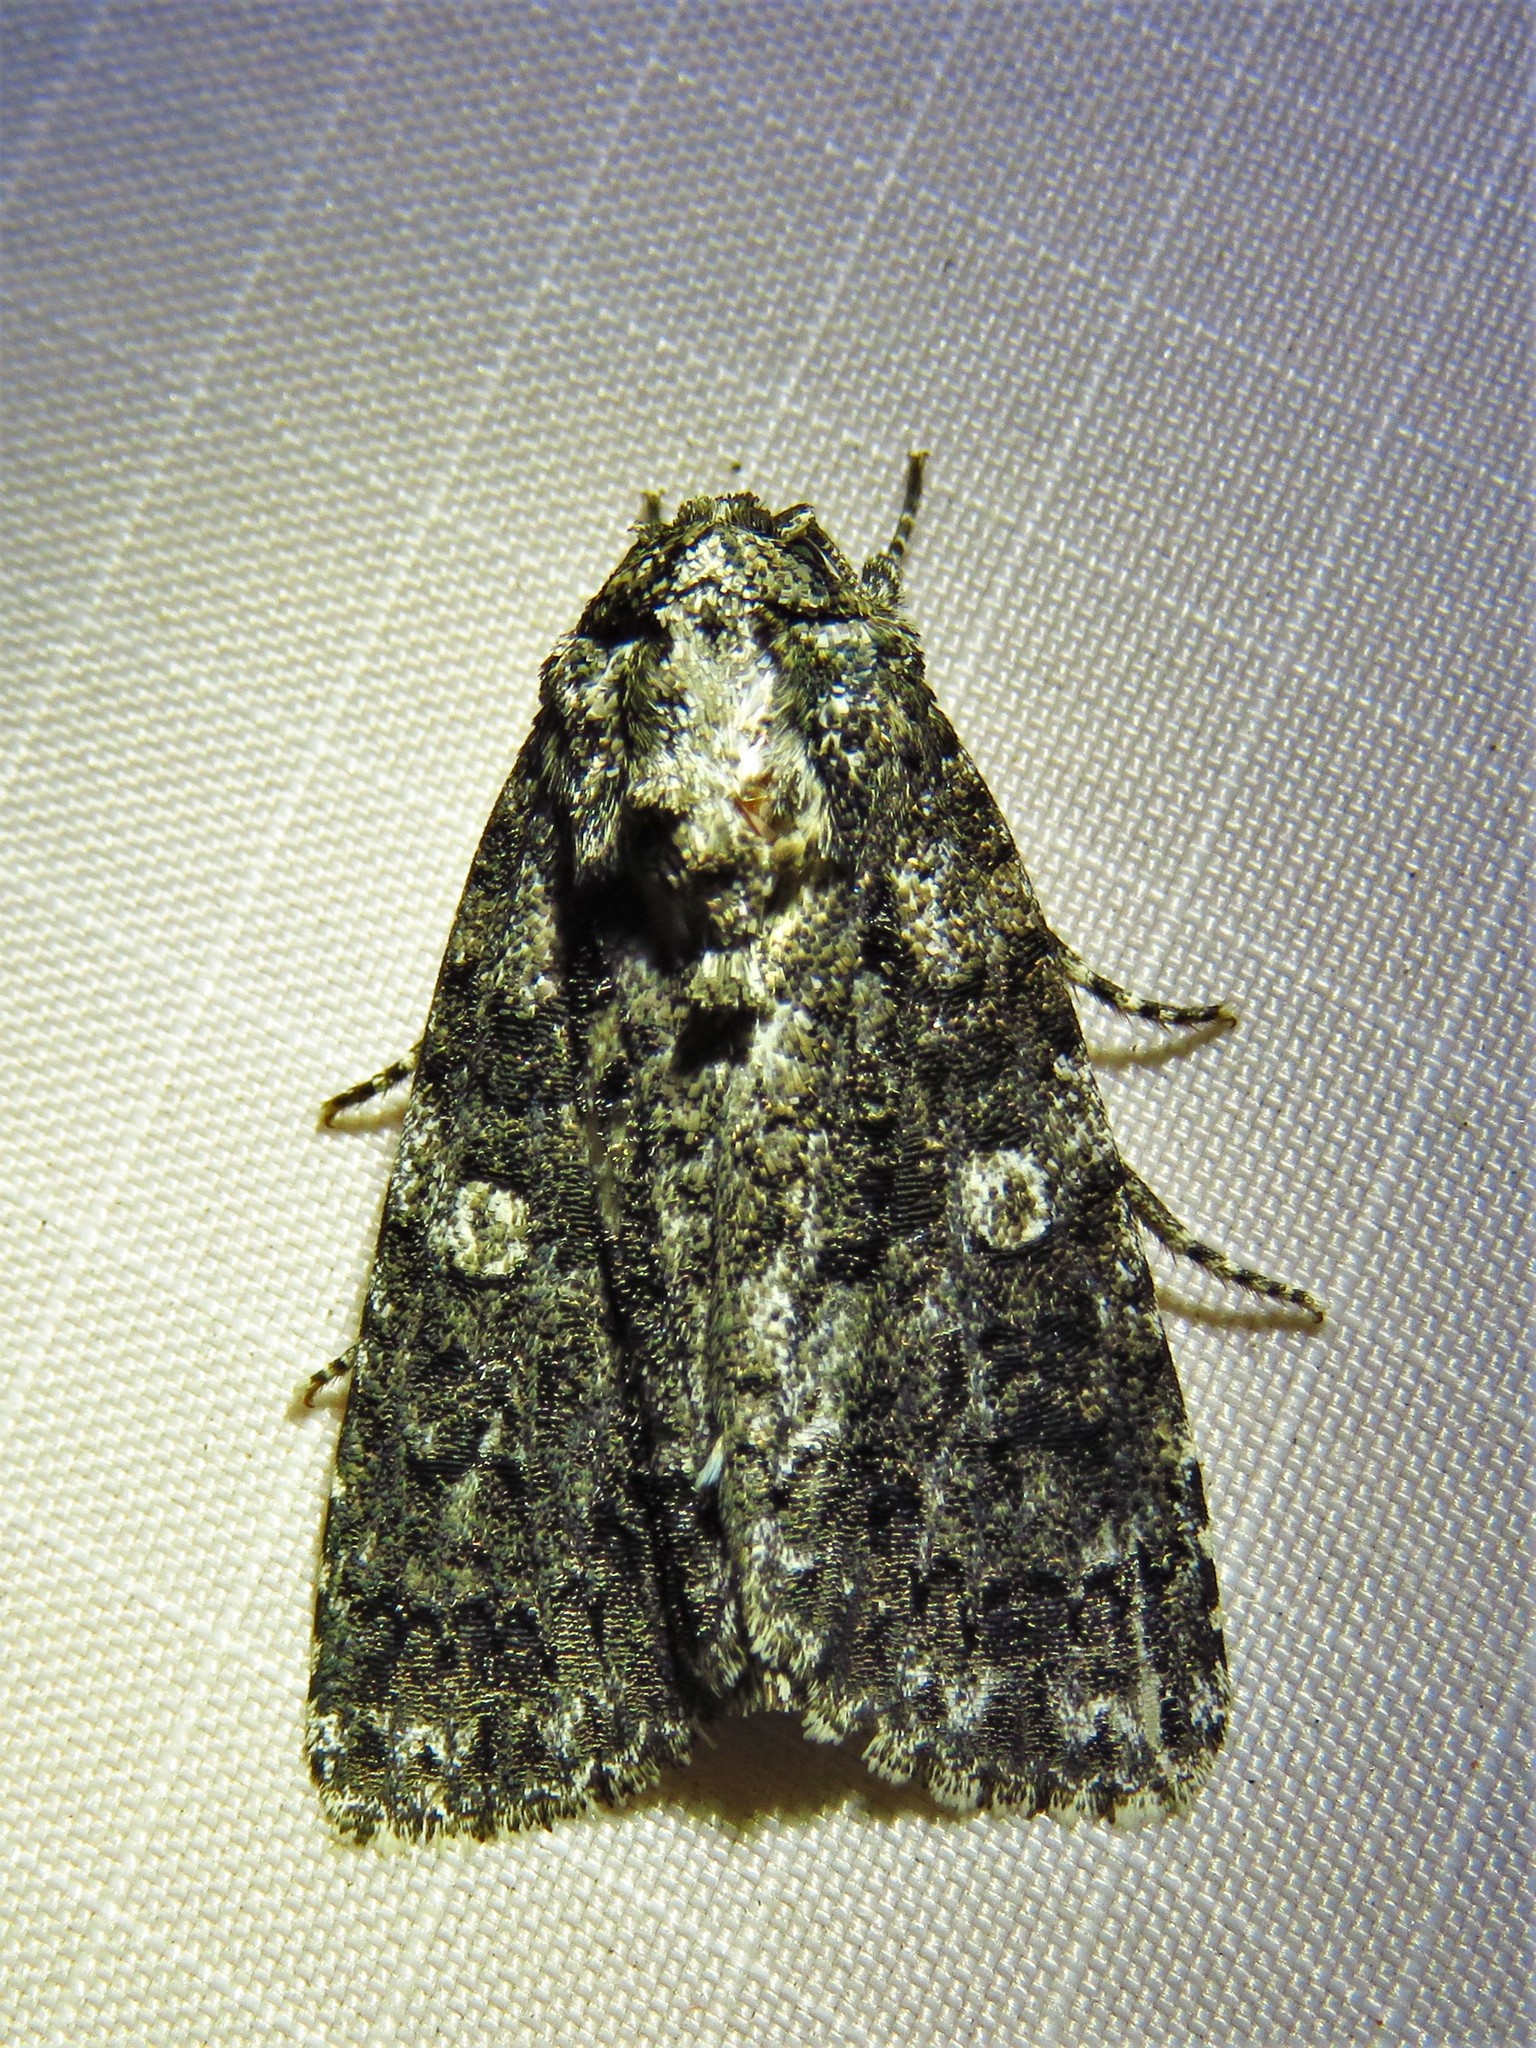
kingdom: Animalia
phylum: Arthropoda
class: Insecta
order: Lepidoptera
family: Noctuidae
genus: Acronicta
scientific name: Acronicta afflicta
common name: Afflicted dagger moth
